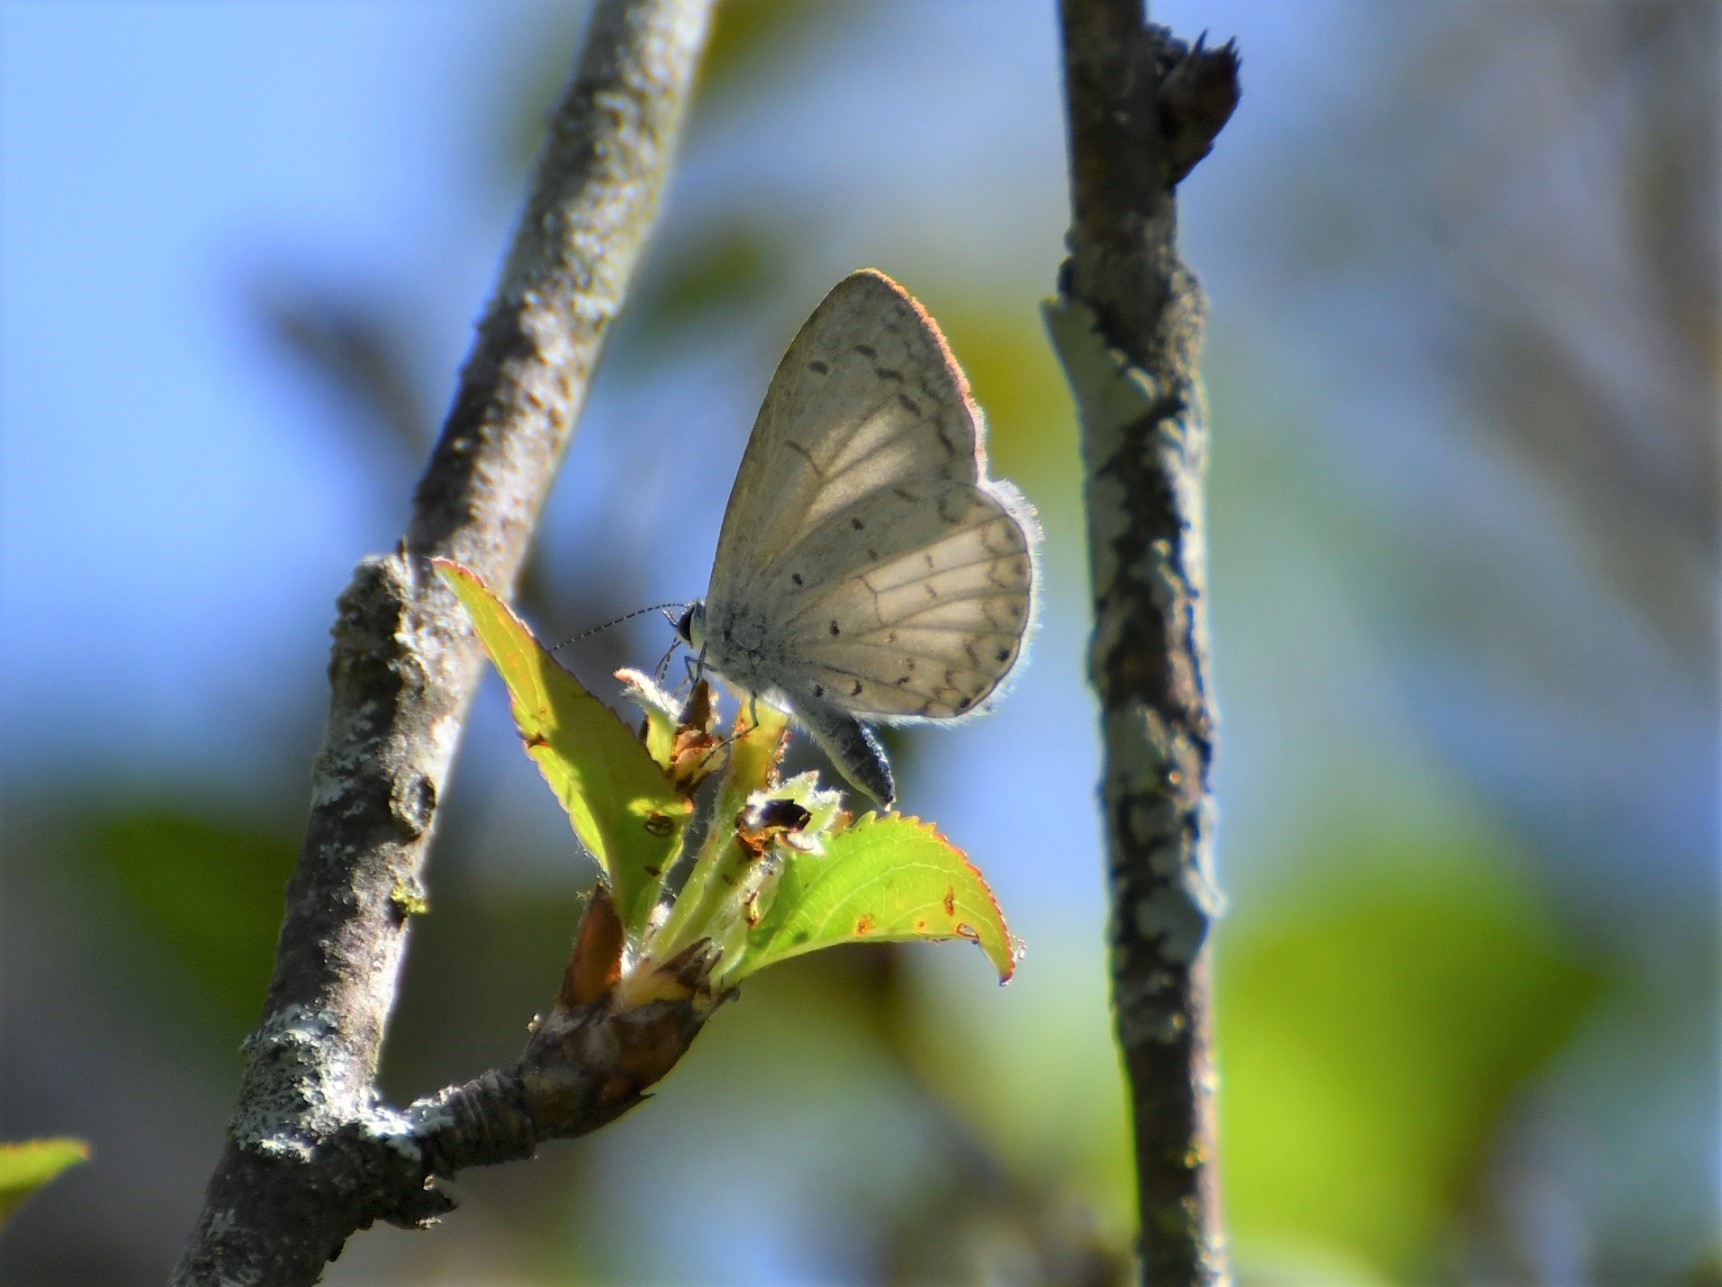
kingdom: Animalia
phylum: Arthropoda
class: Insecta
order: Lepidoptera
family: Lycaenidae
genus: Celastrina
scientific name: Celastrina ladon
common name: Spring azure
